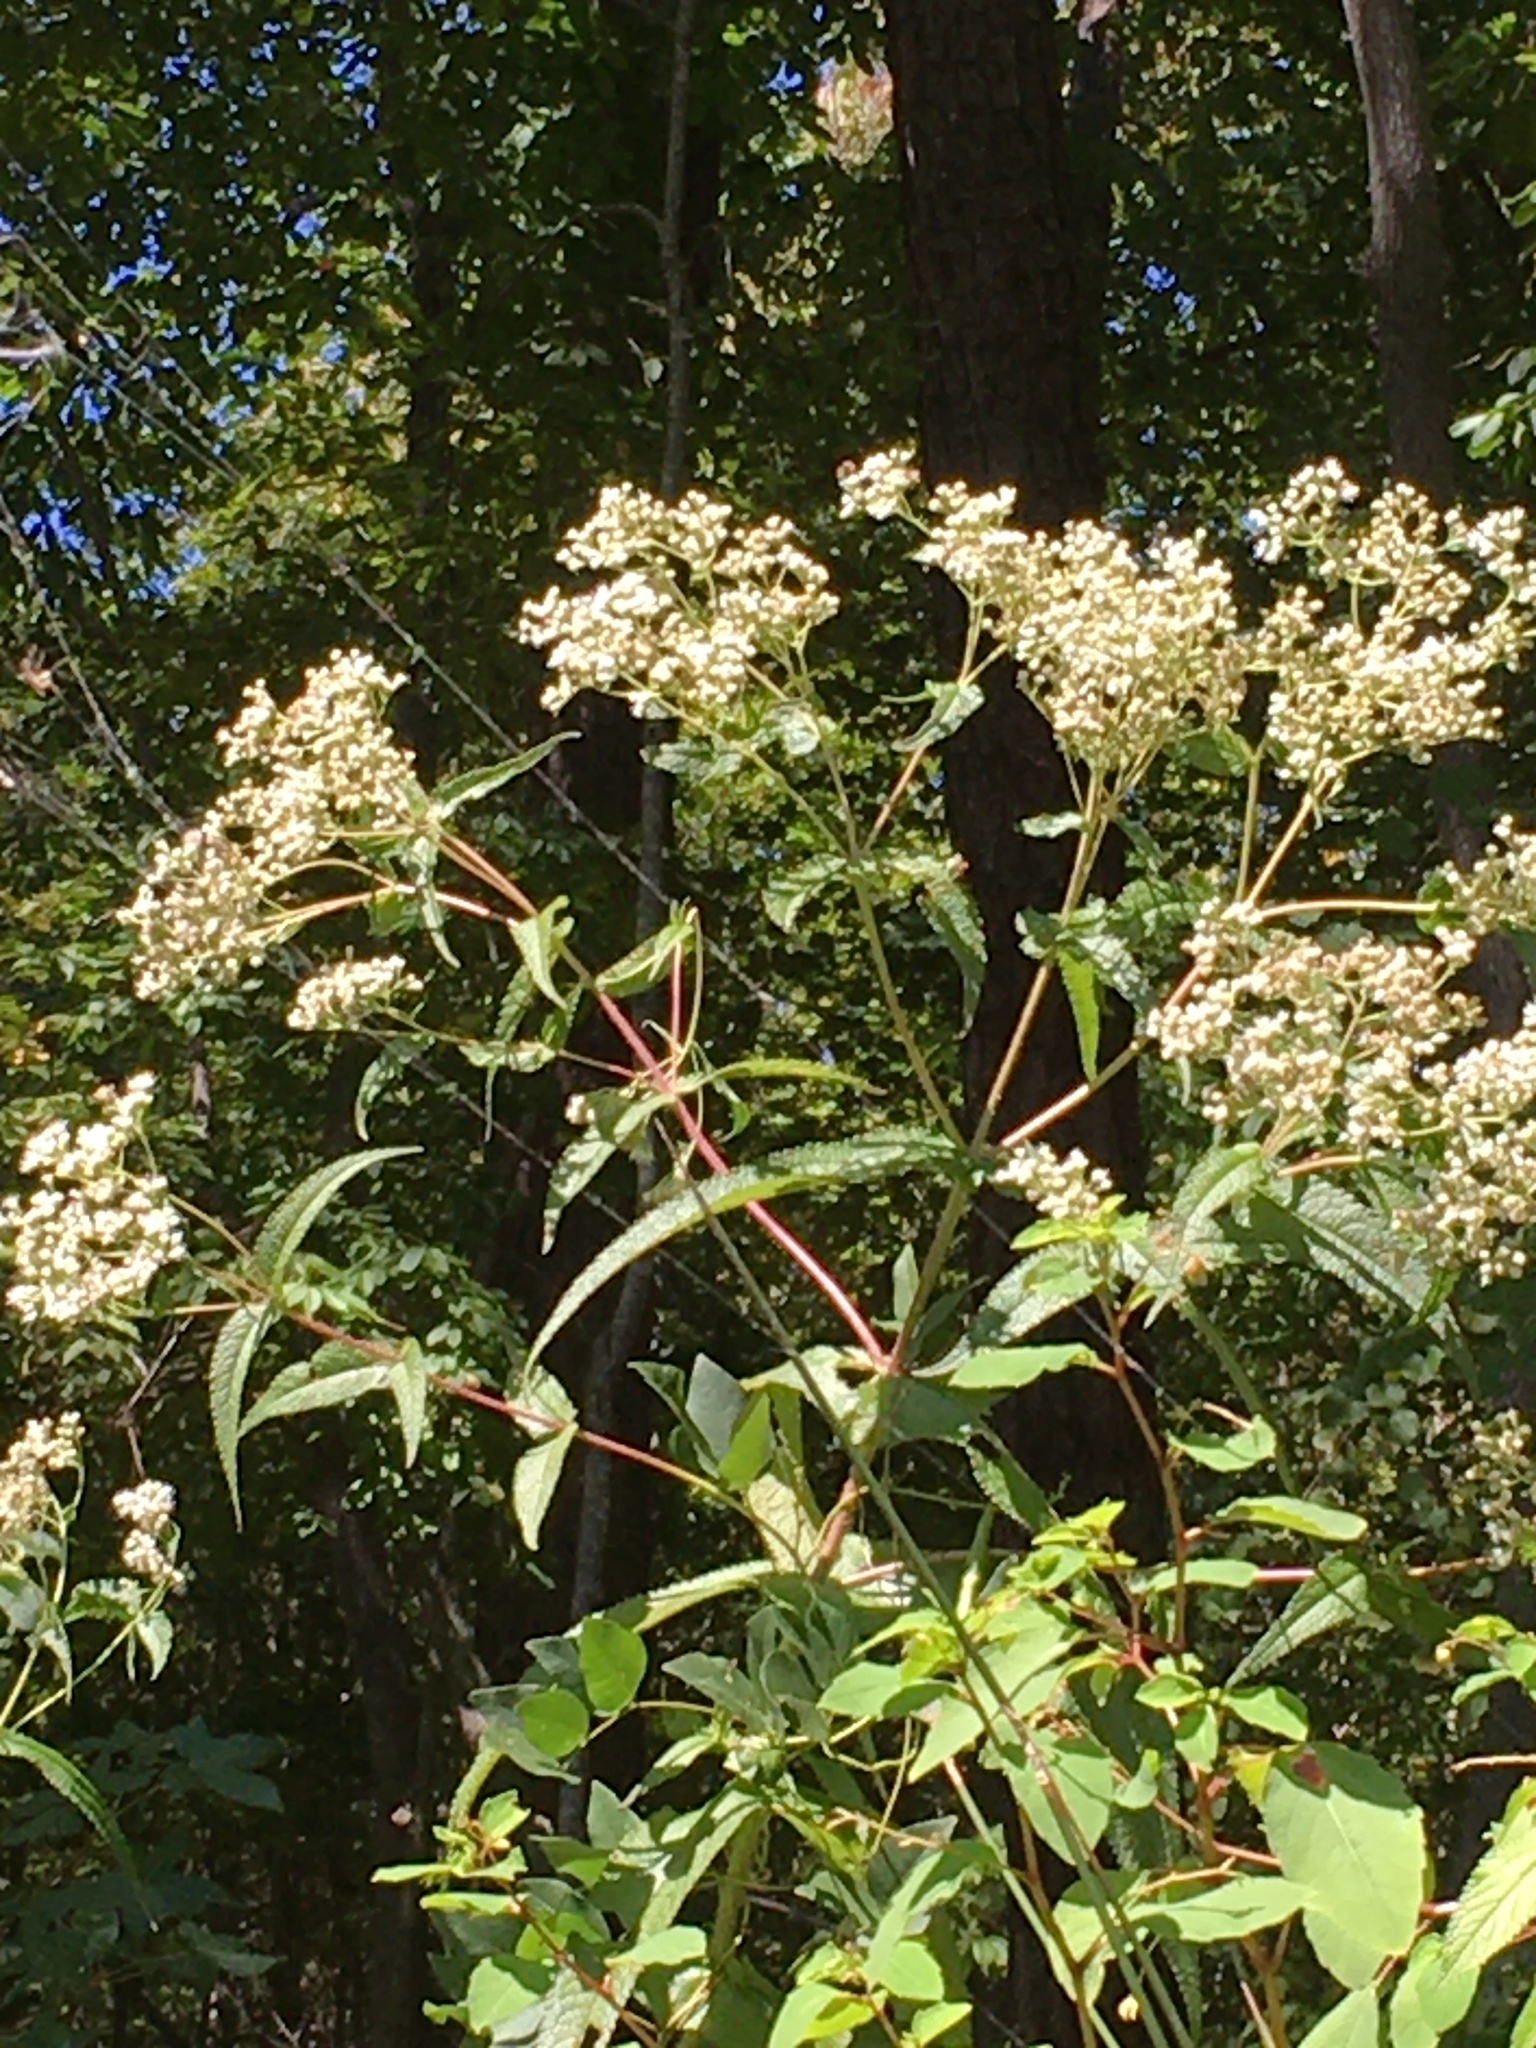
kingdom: Plantae
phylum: Tracheophyta
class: Magnoliopsida
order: Asterales
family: Asteraceae
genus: Eupatorium
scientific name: Eupatorium perfoliatum
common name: Boneset
